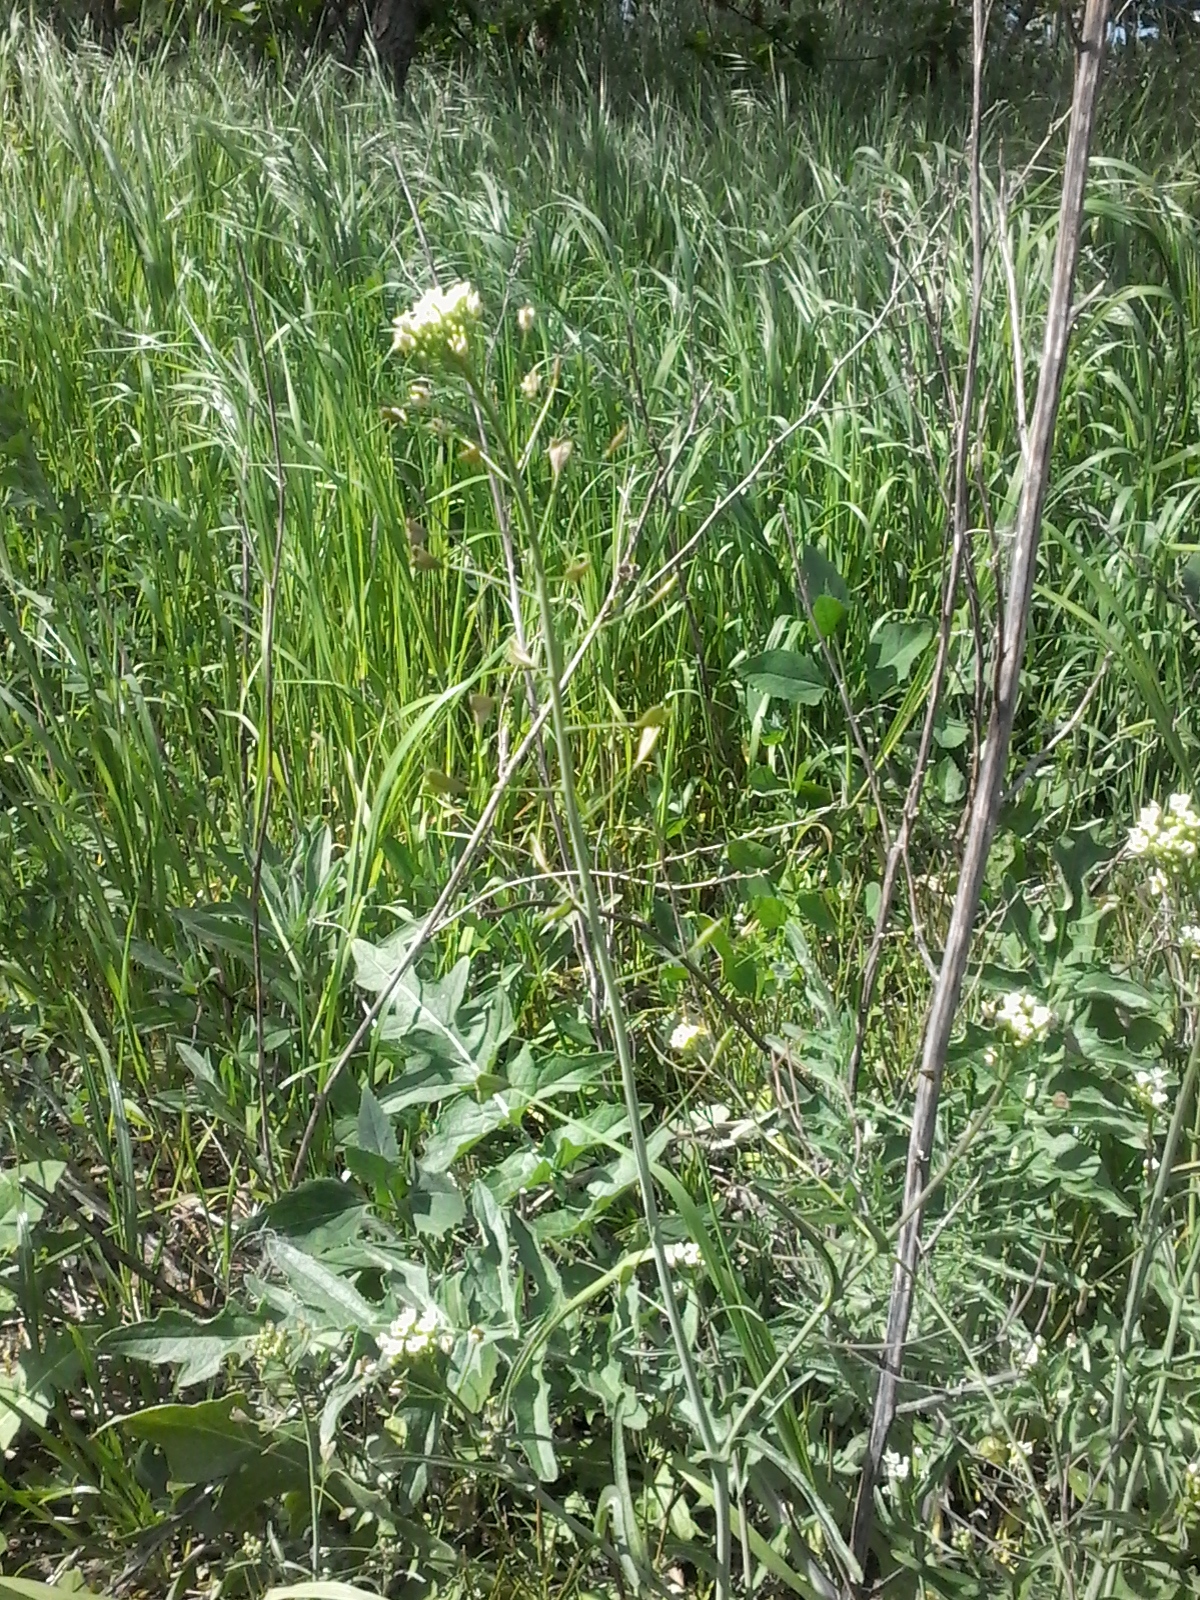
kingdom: Plantae
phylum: Tracheophyta
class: Magnoliopsida
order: Brassicales
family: Brassicaceae
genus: Capsella
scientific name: Capsella bursa-pastoris
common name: Shepherd's purse
